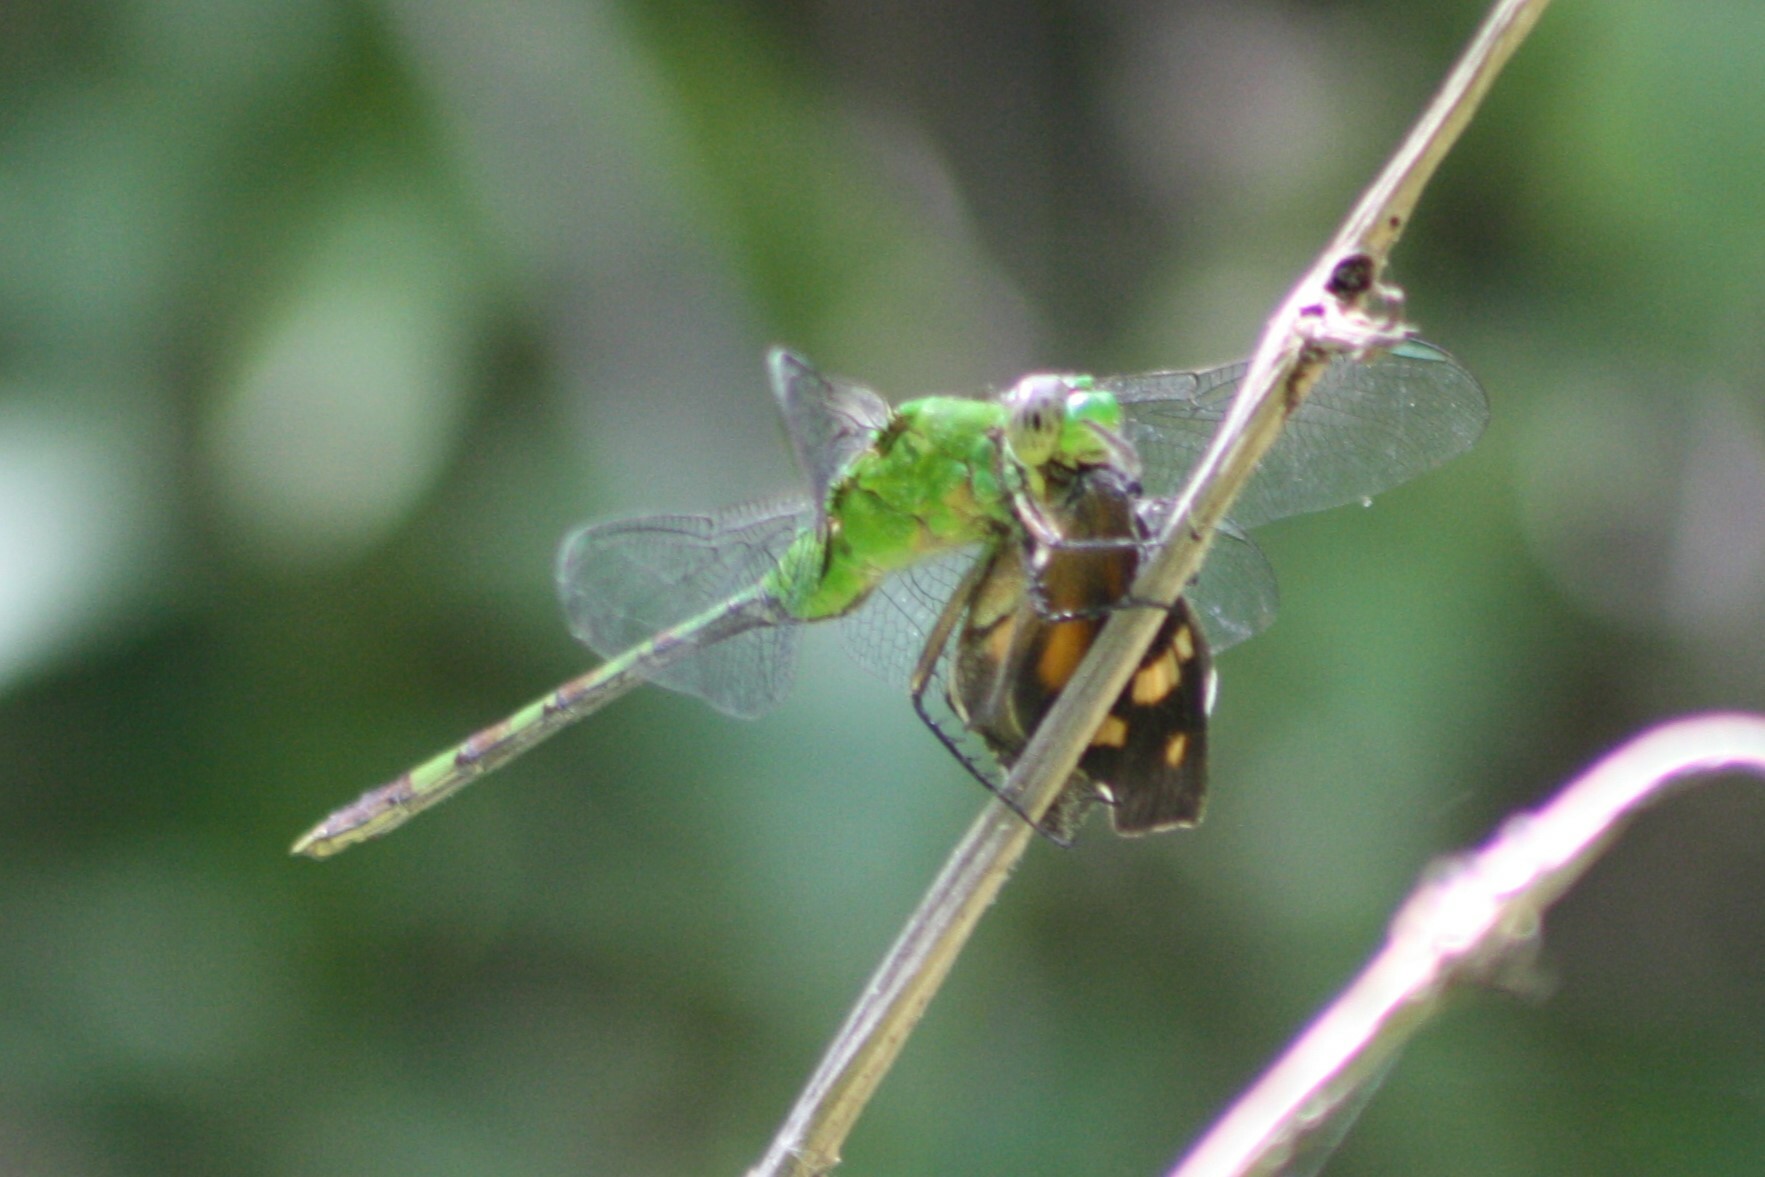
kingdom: Animalia
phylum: Arthropoda
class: Insecta
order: Odonata
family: Libellulidae
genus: Erythemis
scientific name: Erythemis vesiculosa
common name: Great pondhawk
